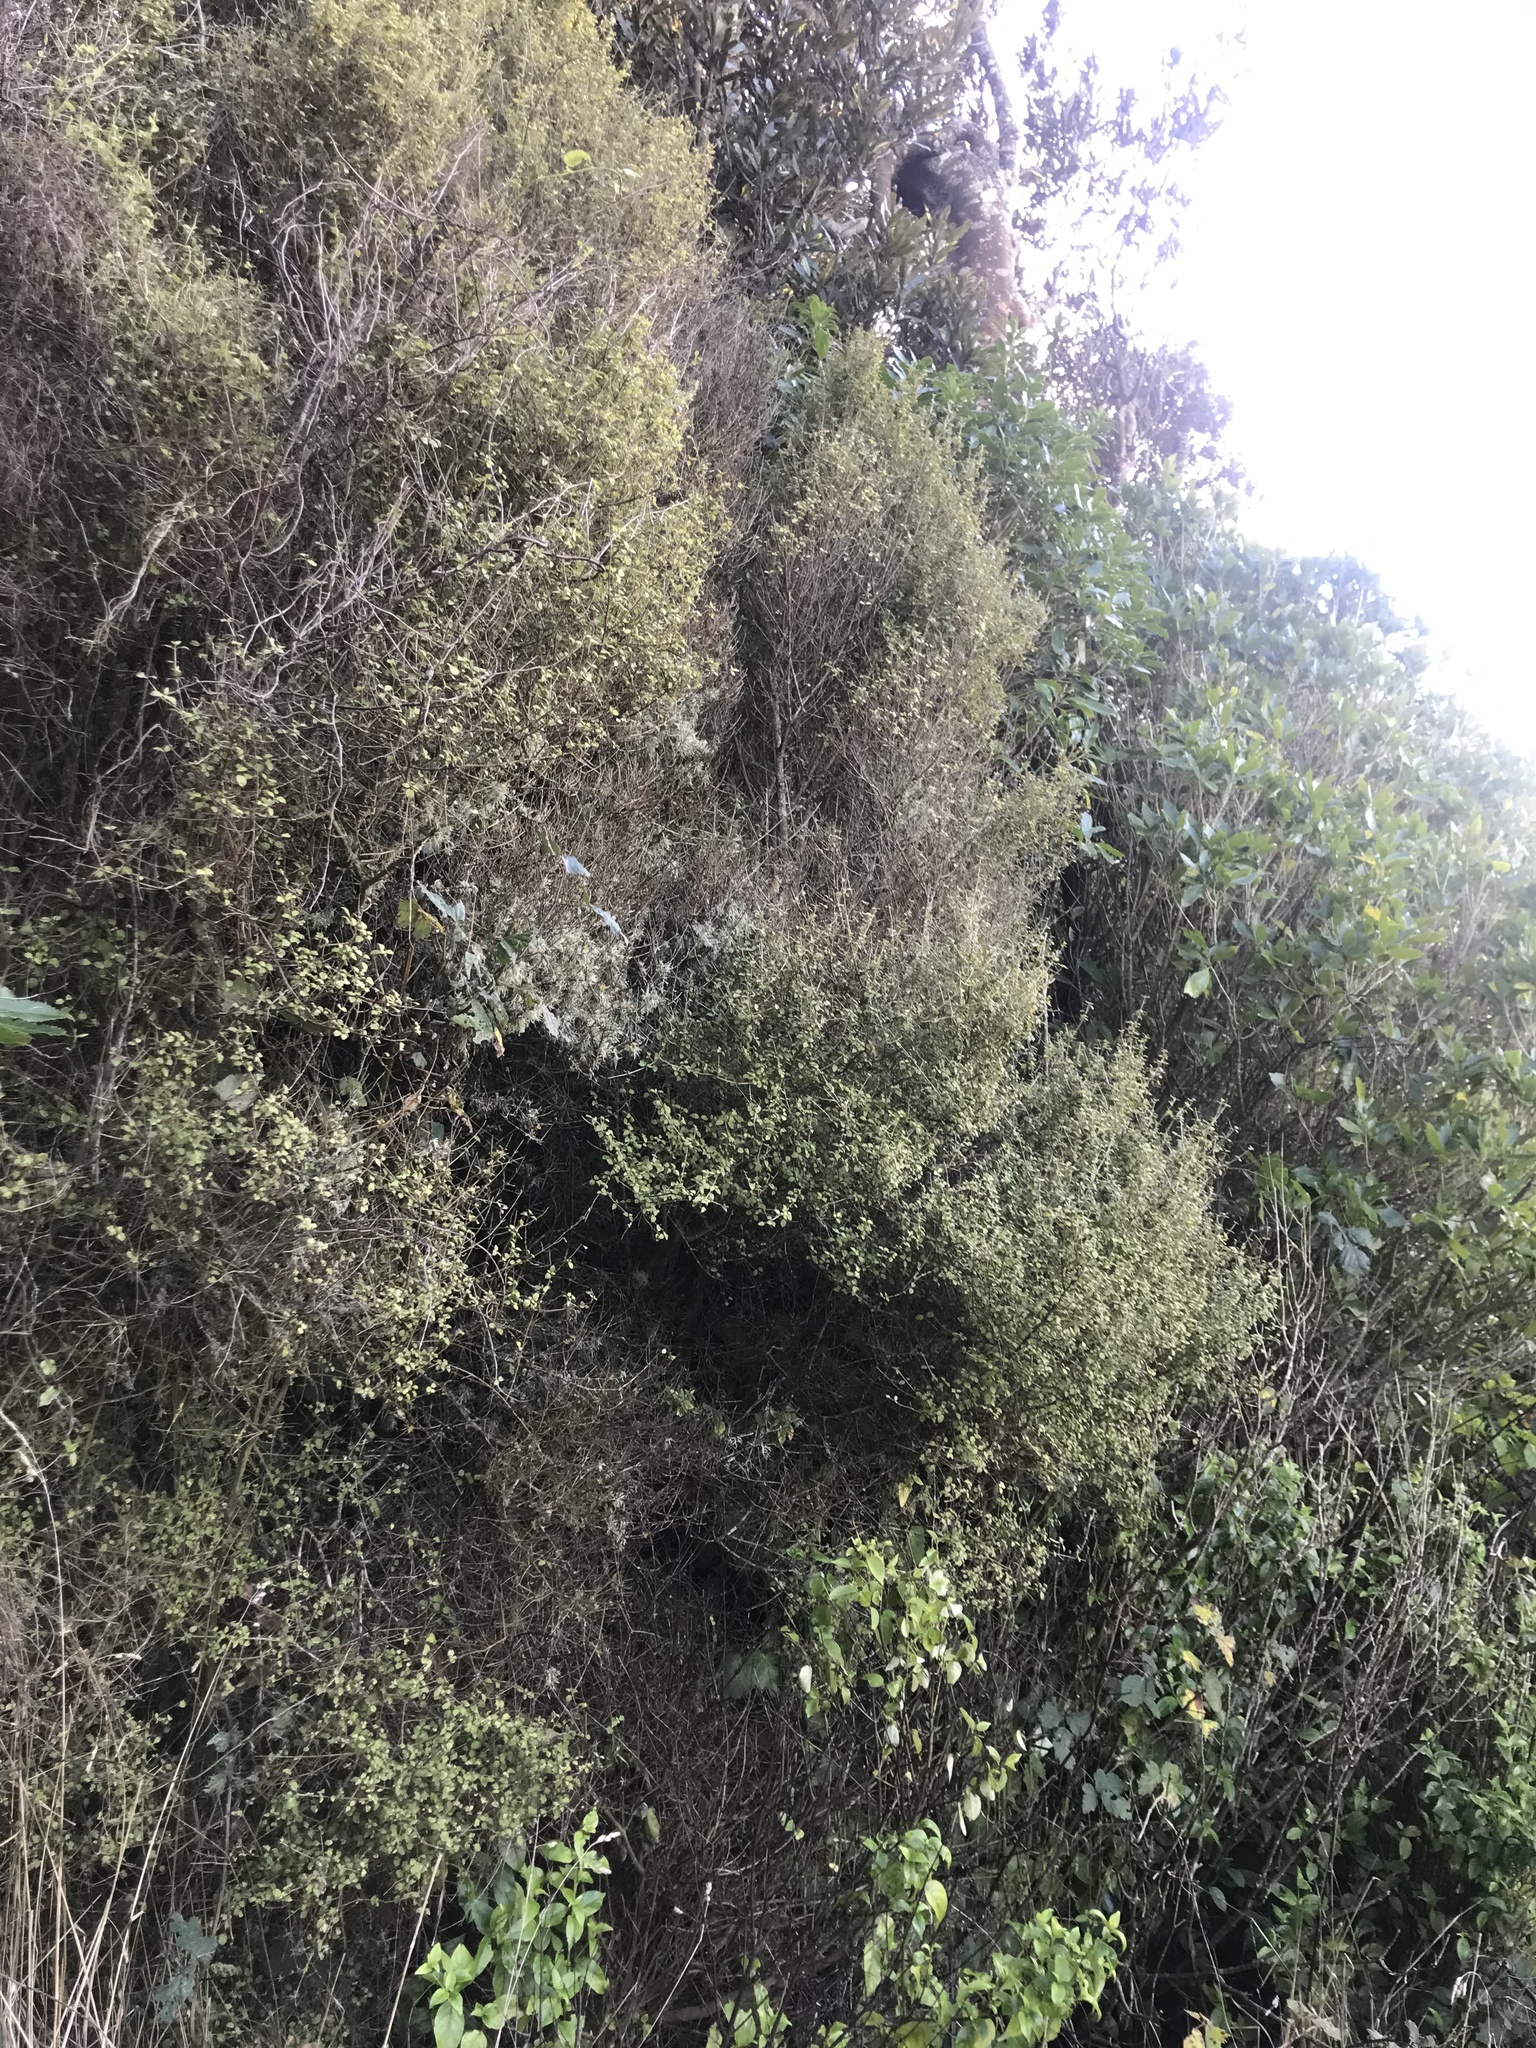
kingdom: Plantae
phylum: Tracheophyta
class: Magnoliopsida
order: Gentianales
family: Rubiaceae
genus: Coprosma
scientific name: Coprosma areolata
